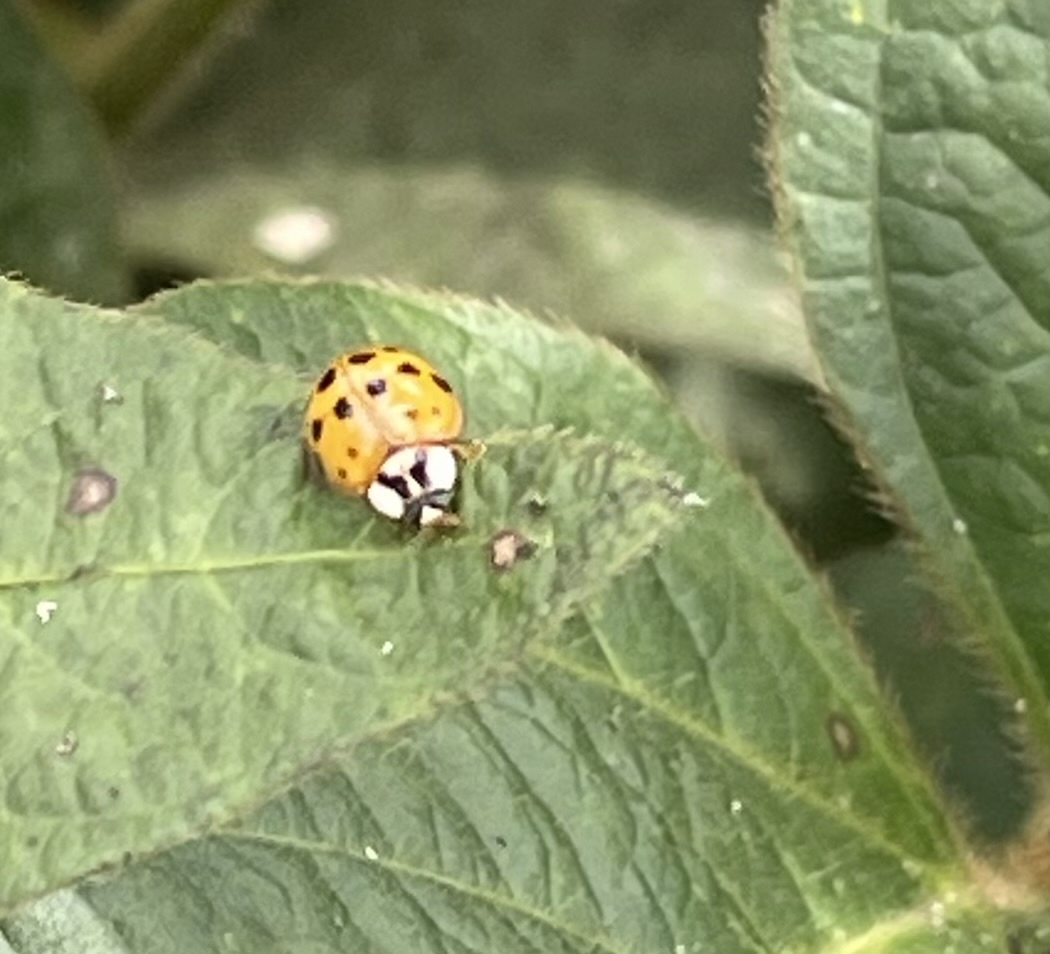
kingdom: Animalia
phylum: Arthropoda
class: Insecta
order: Coleoptera
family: Coccinellidae
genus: Harmonia
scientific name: Harmonia axyridis
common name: Harlequin ladybird
